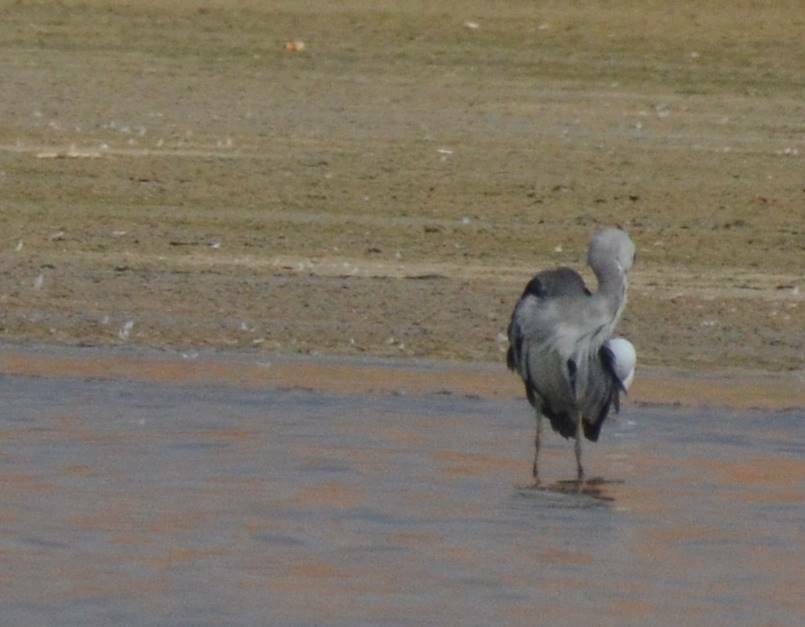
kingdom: Animalia
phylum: Chordata
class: Aves
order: Pelecaniformes
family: Ardeidae
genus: Ardea
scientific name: Ardea cinerea
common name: Grey heron
